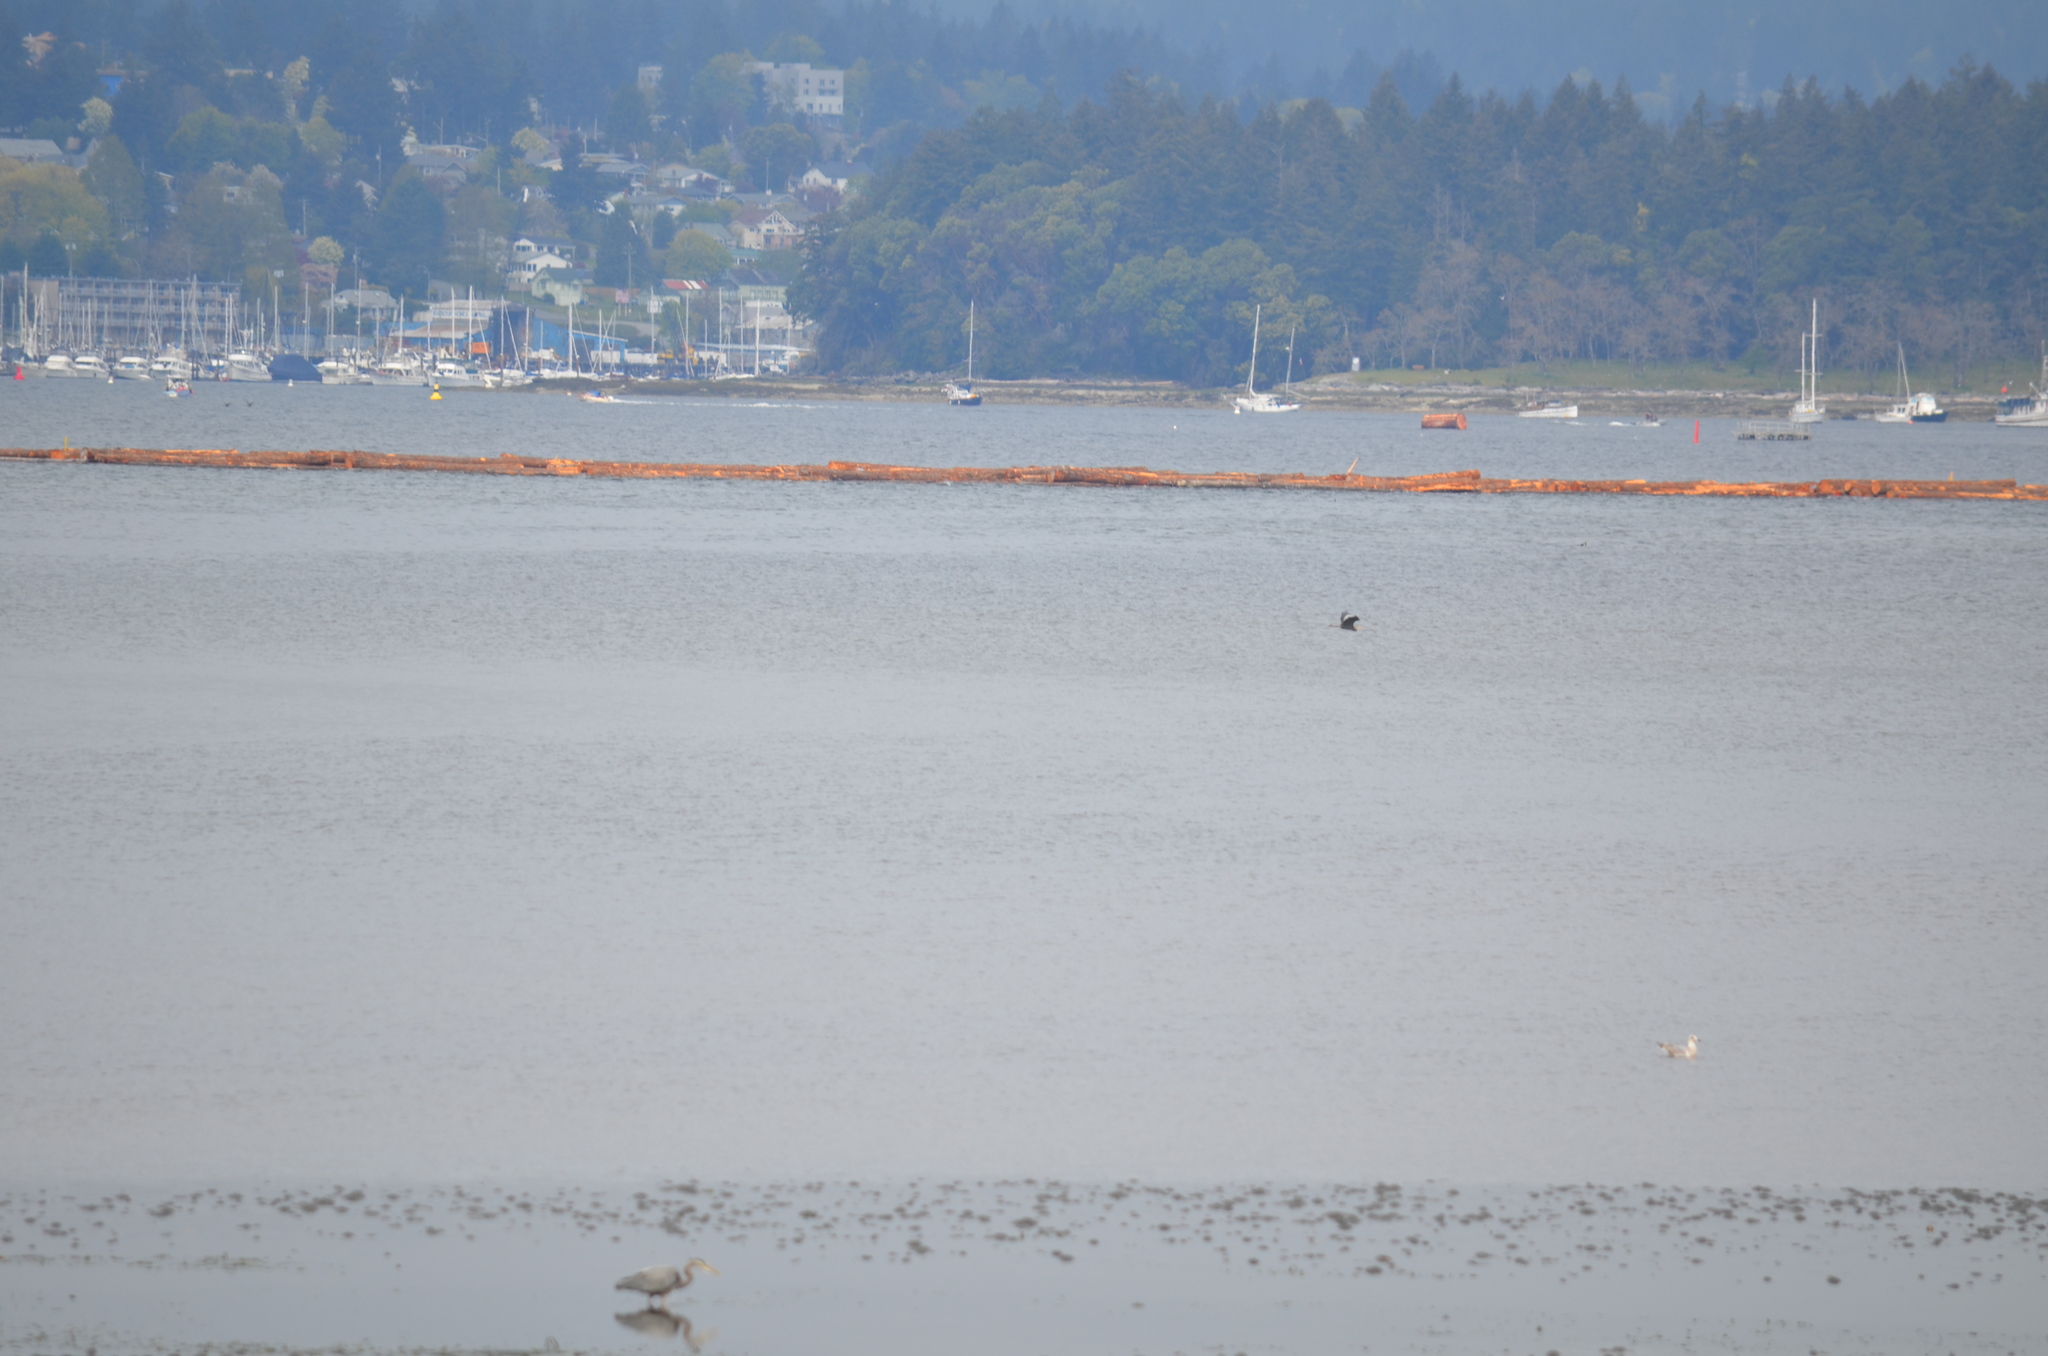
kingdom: Animalia
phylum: Chordata
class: Aves
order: Pelecaniformes
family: Ardeidae
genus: Ardea
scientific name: Ardea herodias
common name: Great blue heron
